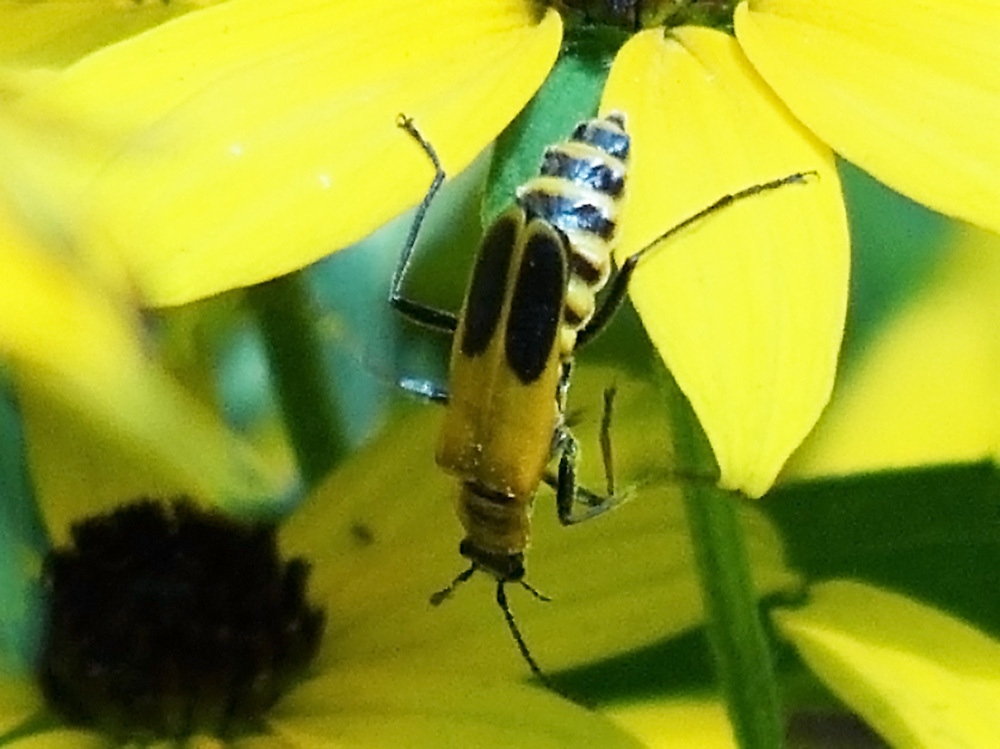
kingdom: Animalia
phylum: Arthropoda
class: Insecta
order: Coleoptera
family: Cantharidae
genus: Chauliognathus
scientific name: Chauliognathus pensylvanicus
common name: Goldenrod soldier beetle
